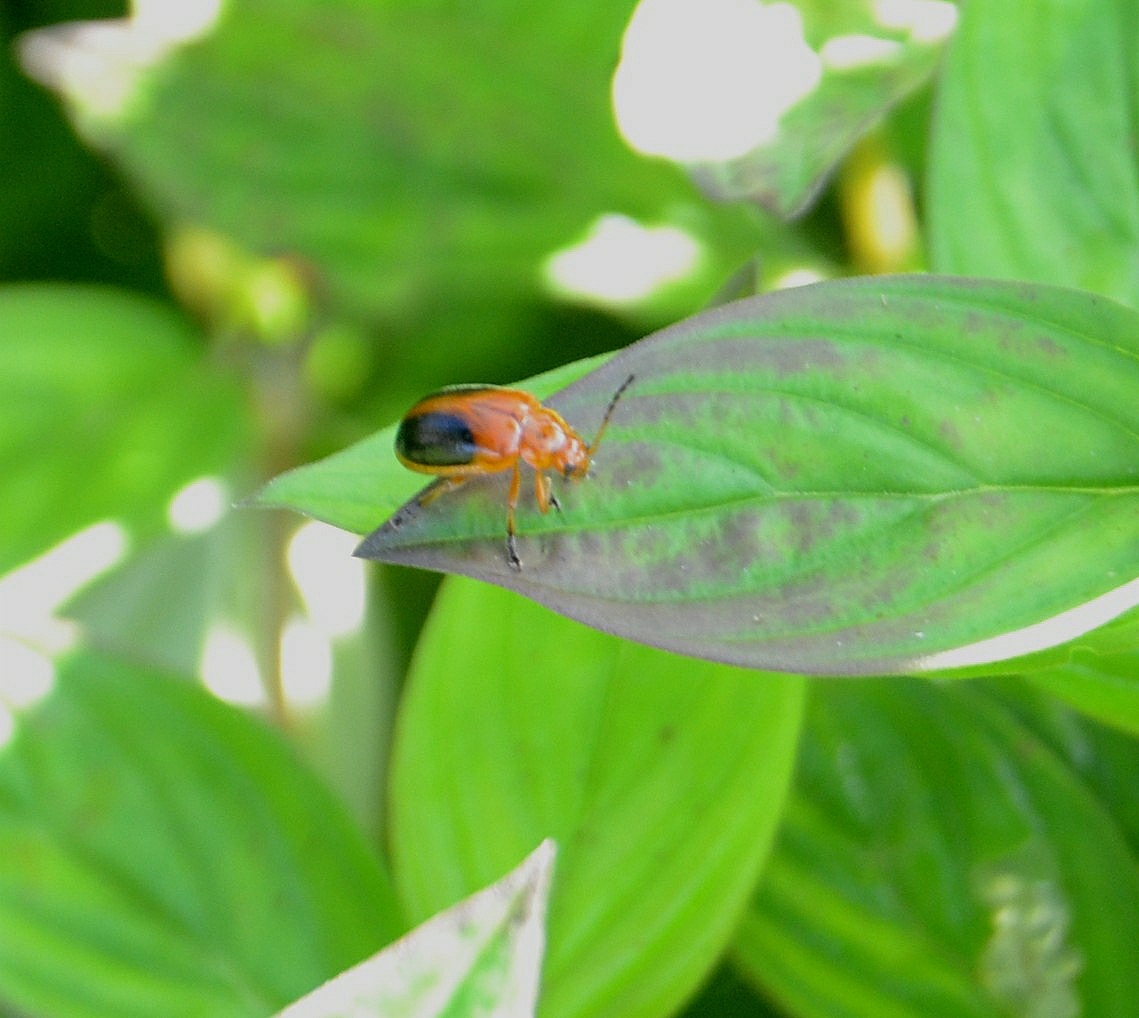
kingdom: Animalia
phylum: Arthropoda
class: Insecta
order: Coleoptera
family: Chrysomelidae
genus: Oides
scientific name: Oides affinis
